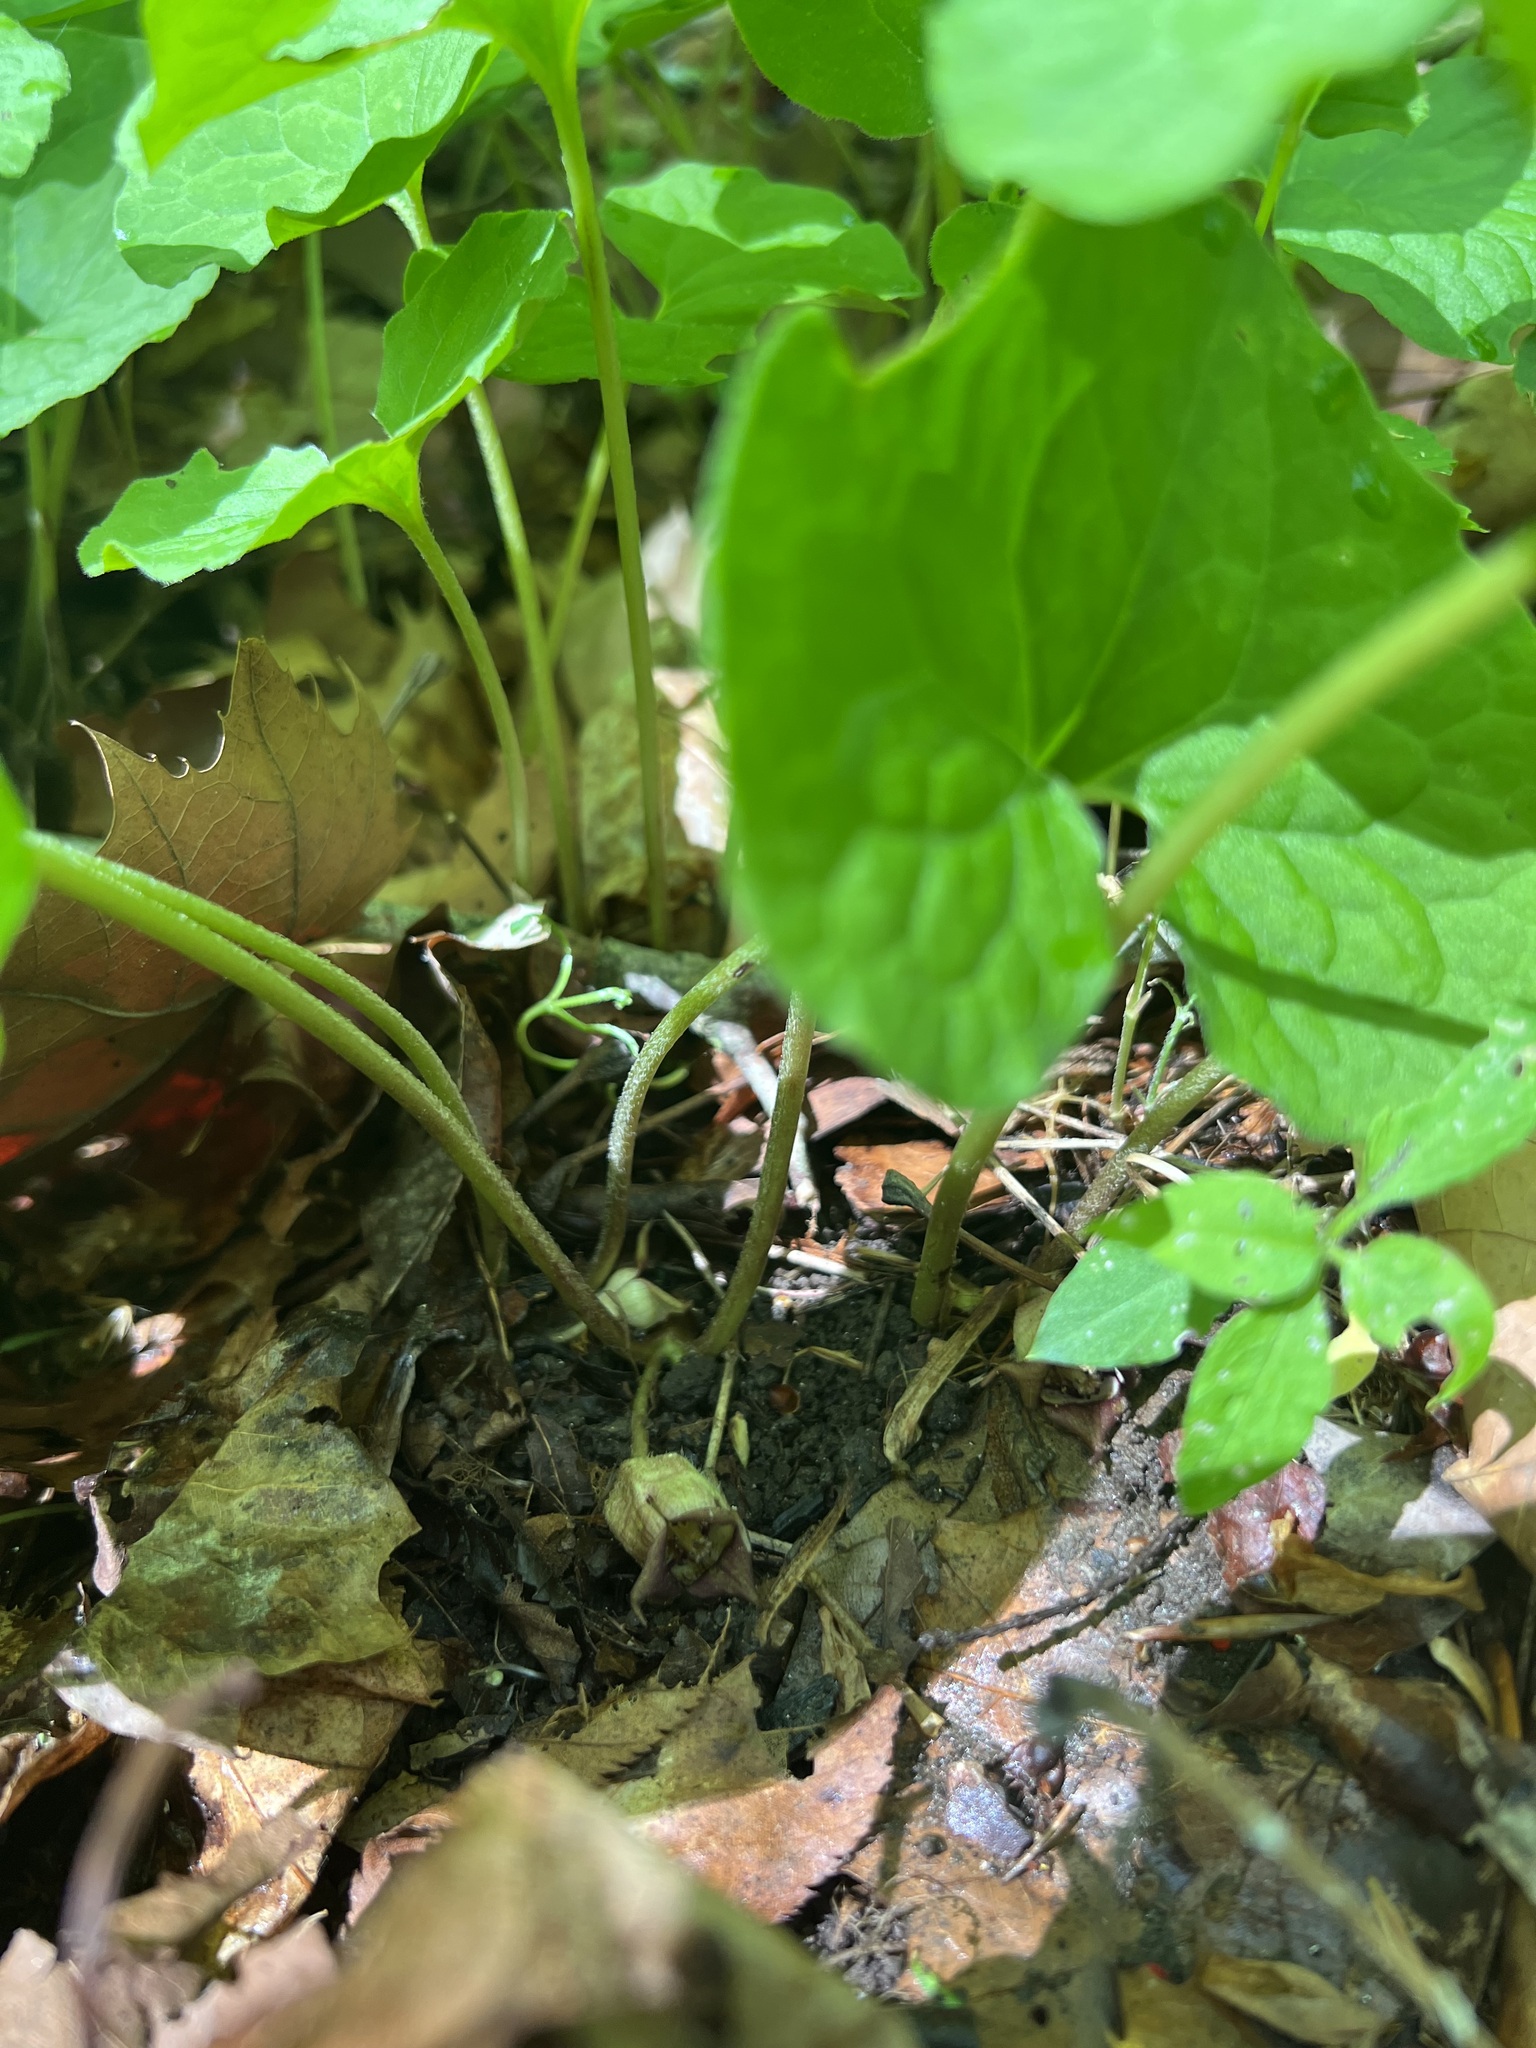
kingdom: Plantae
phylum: Tracheophyta
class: Magnoliopsida
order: Piperales
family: Aristolochiaceae
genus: Asarum
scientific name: Asarum canadense
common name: Wild ginger
